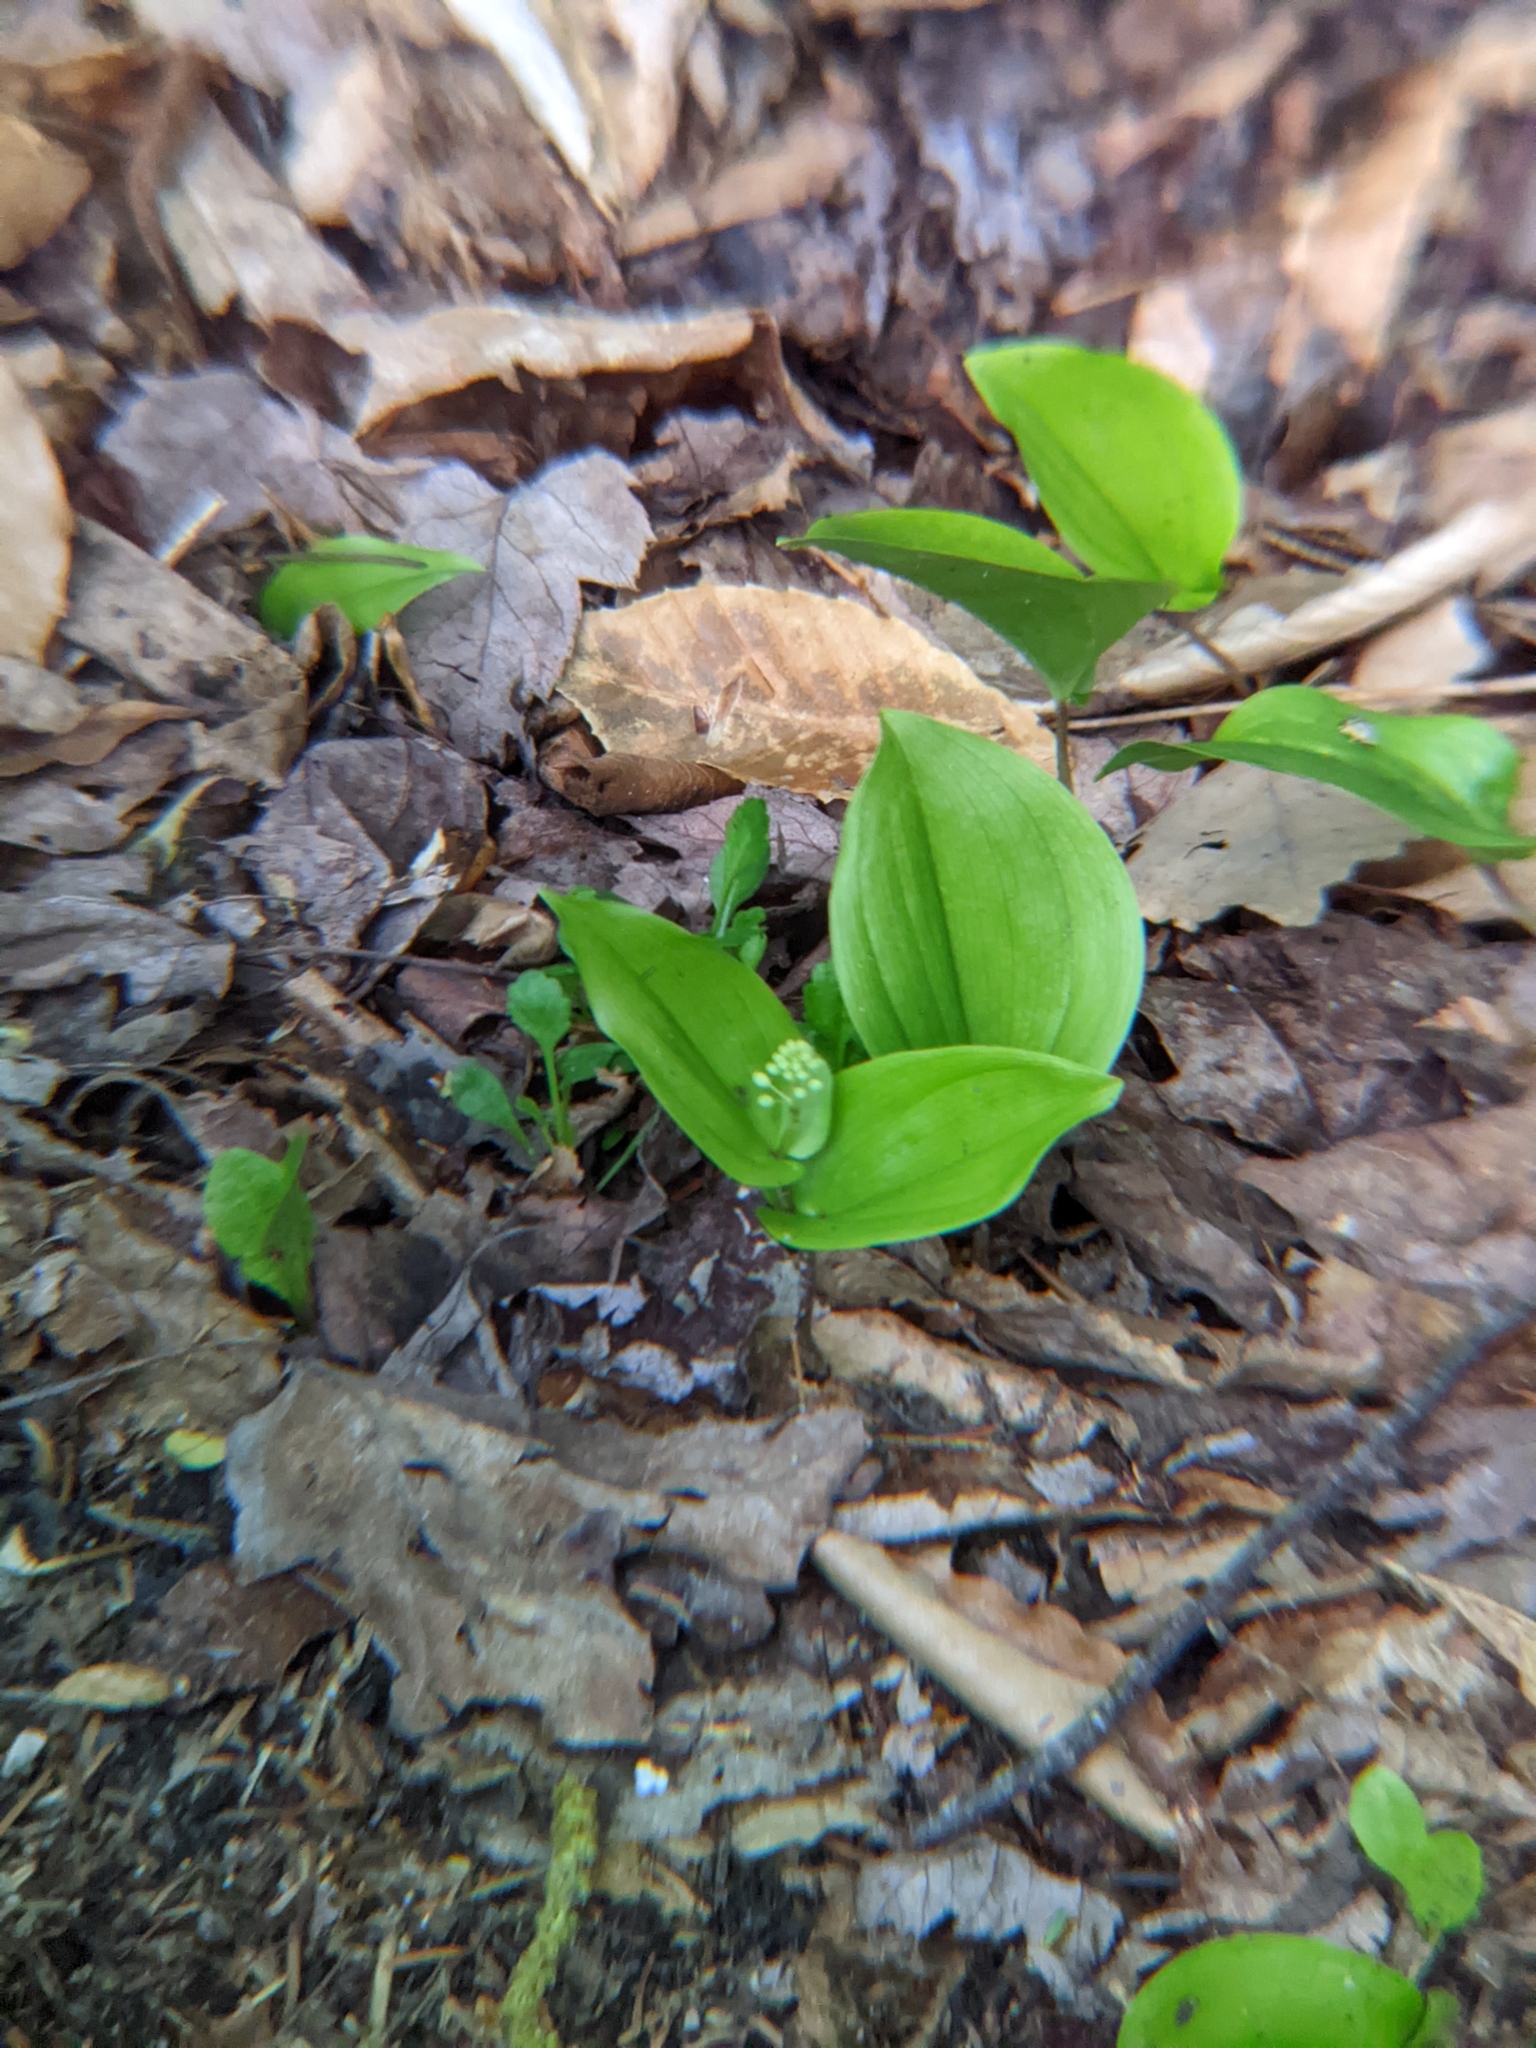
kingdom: Plantae
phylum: Tracheophyta
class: Liliopsida
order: Asparagales
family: Asparagaceae
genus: Maianthemum
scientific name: Maianthemum canadense
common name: False lily-of-the-valley
